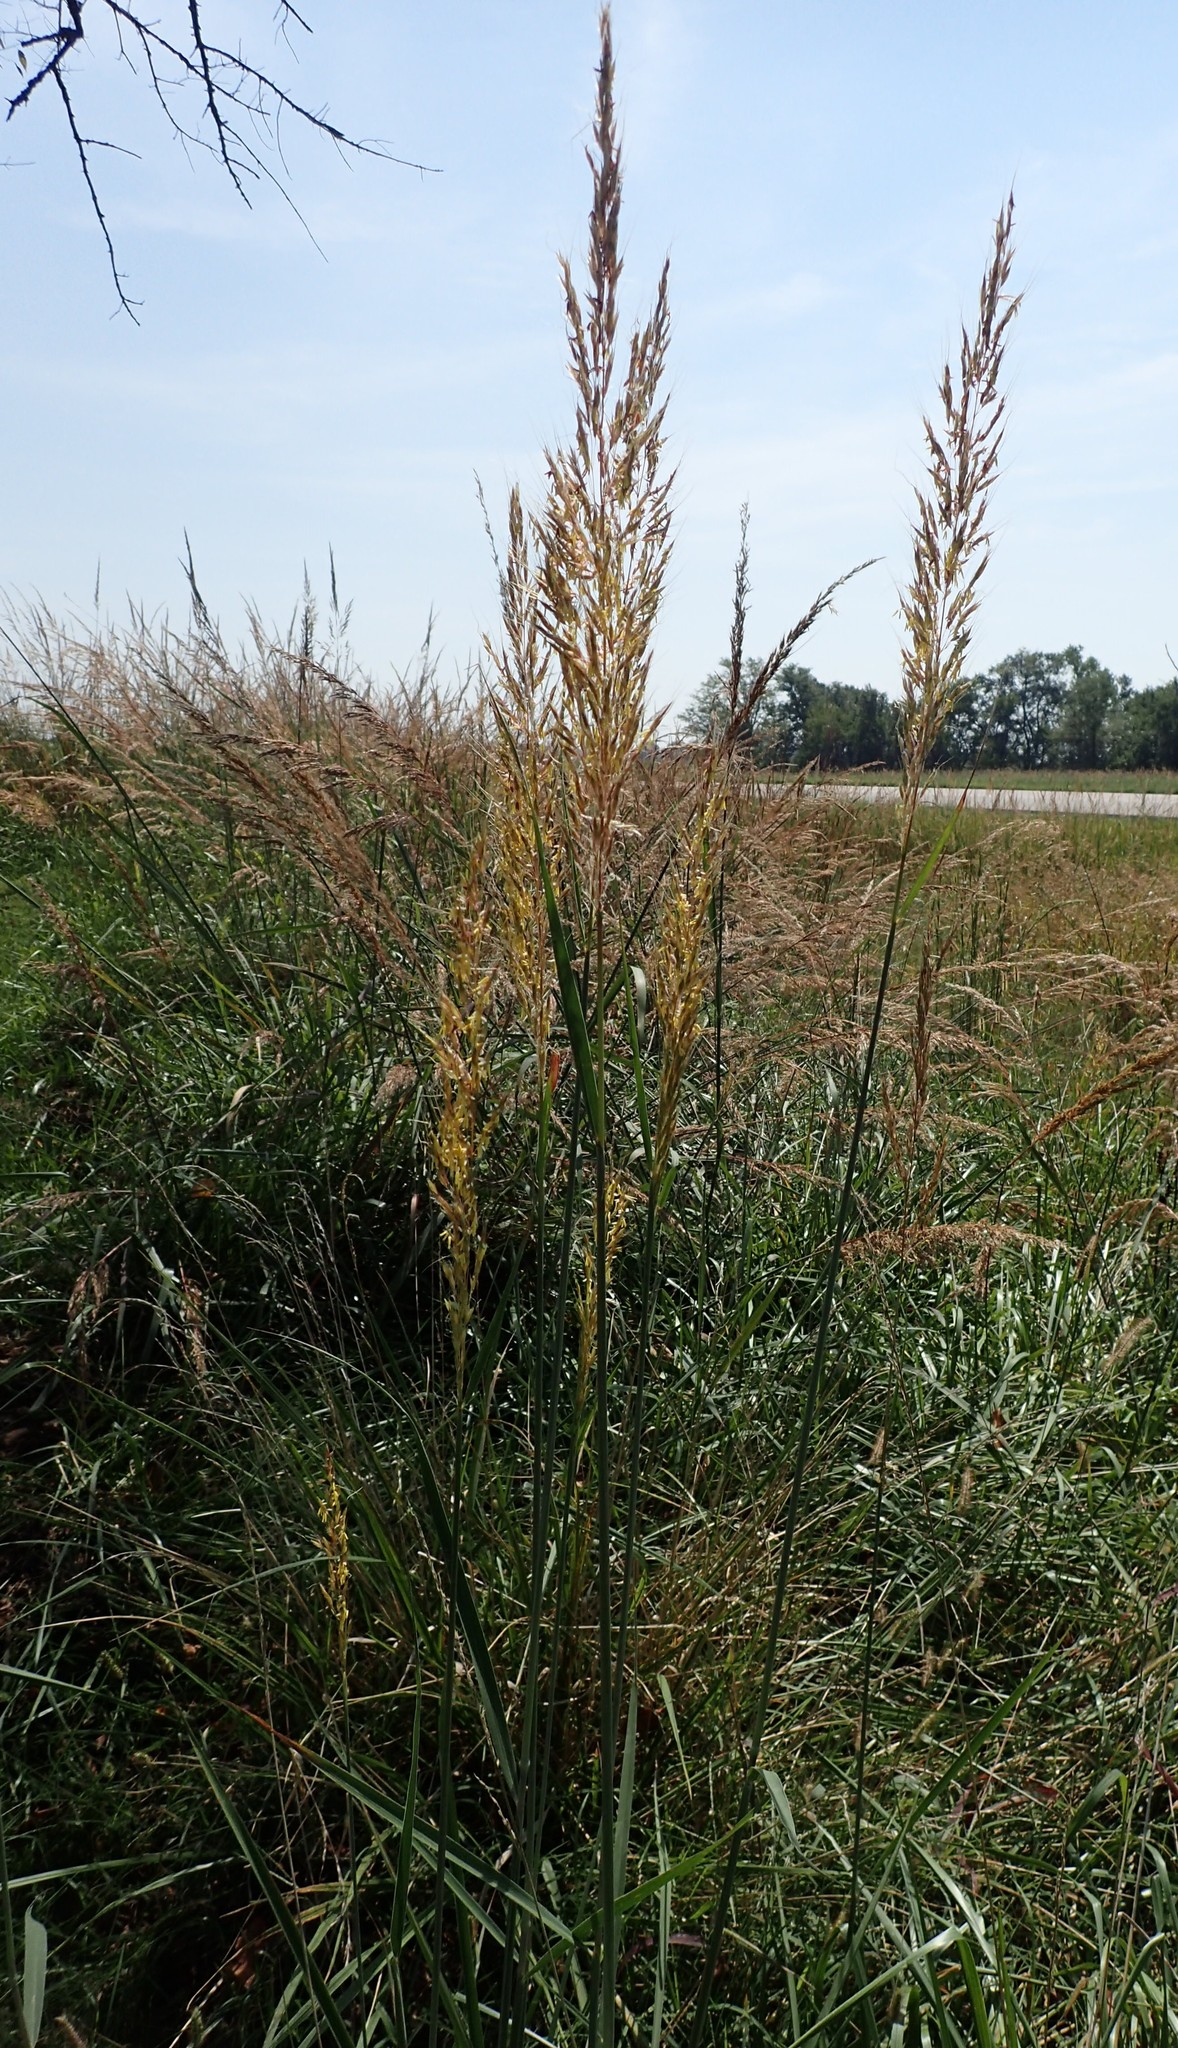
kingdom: Plantae
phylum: Tracheophyta
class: Liliopsida
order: Poales
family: Poaceae
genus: Sorghastrum
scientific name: Sorghastrum nutans
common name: Indian grass
